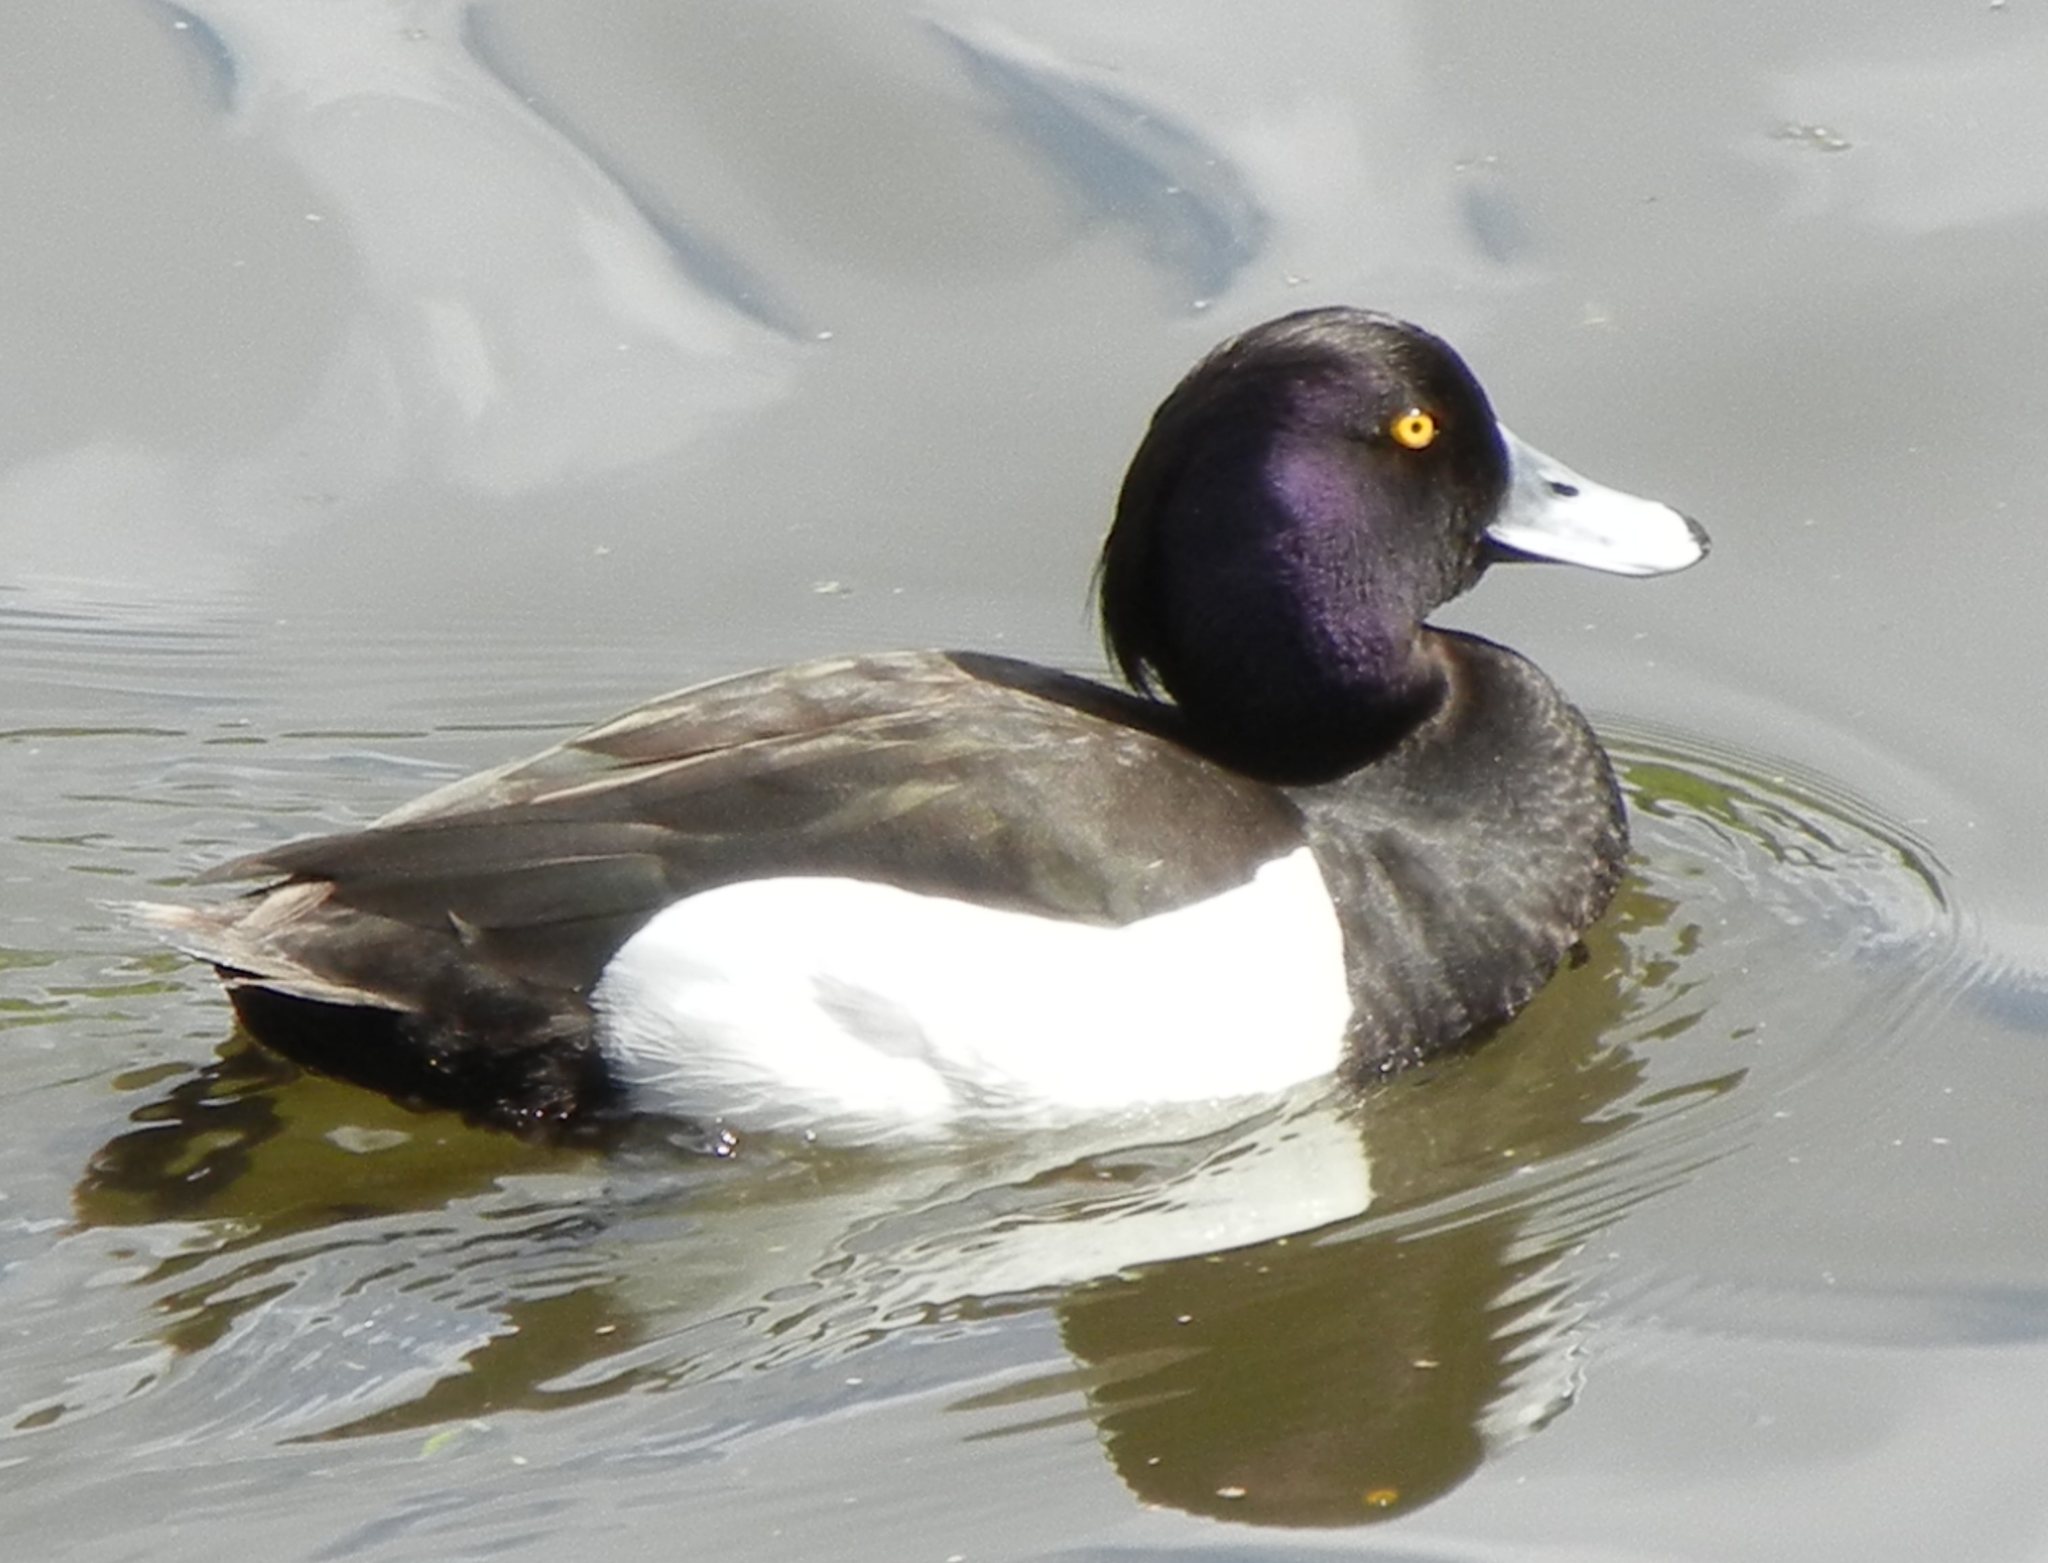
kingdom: Animalia
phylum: Chordata
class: Aves
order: Anseriformes
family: Anatidae
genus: Aythya
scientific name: Aythya fuligula
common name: Tufted duck
